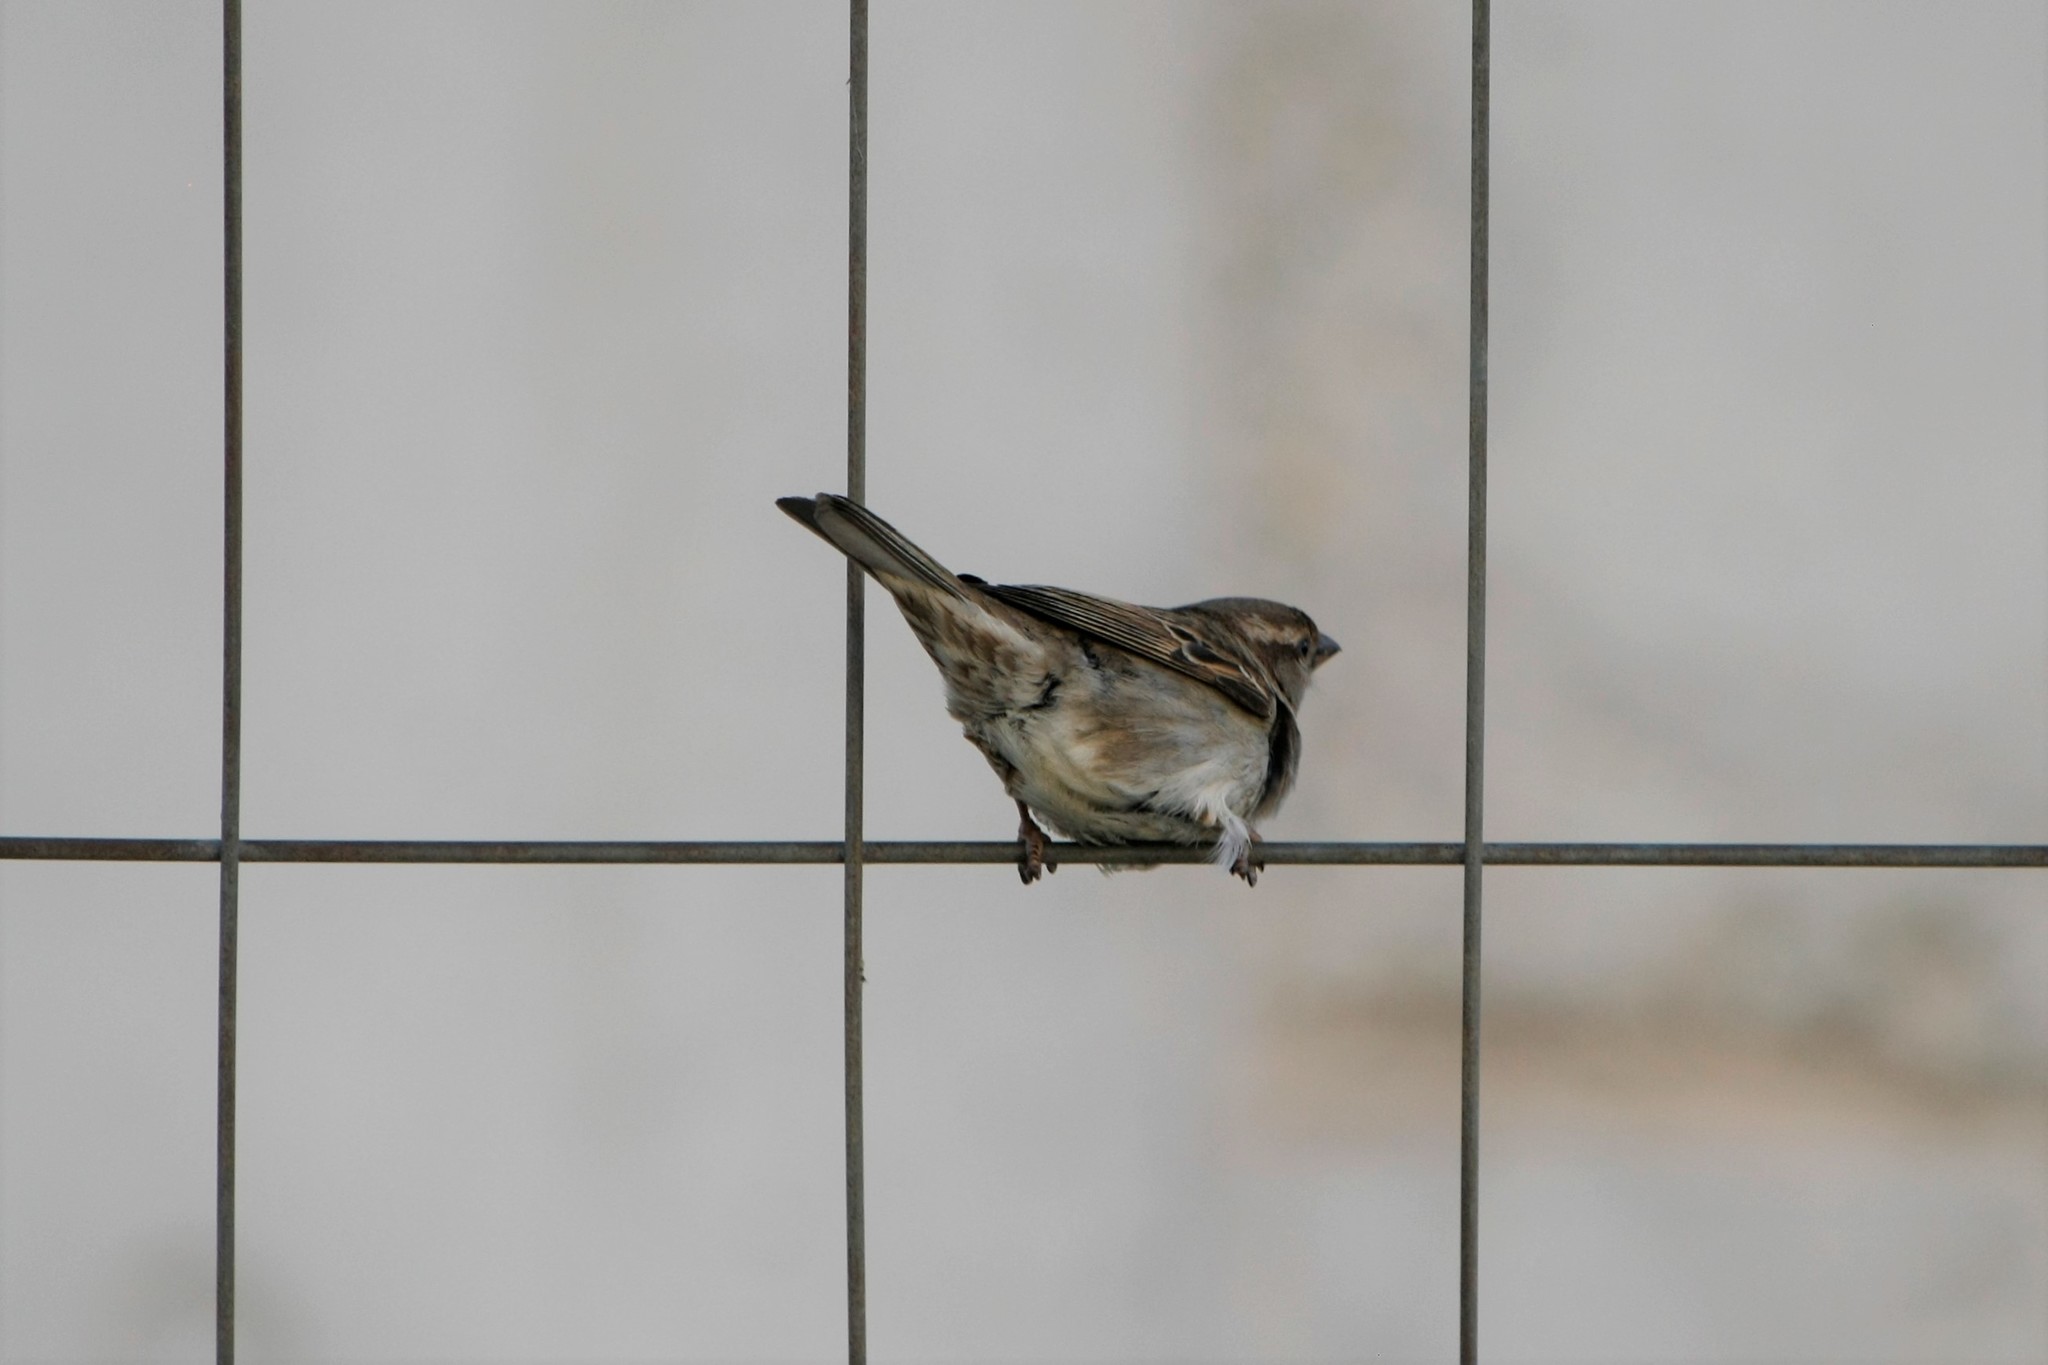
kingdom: Animalia
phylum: Chordata
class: Aves
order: Passeriformes
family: Passeridae
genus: Passer
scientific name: Passer domesticus
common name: House sparrow
